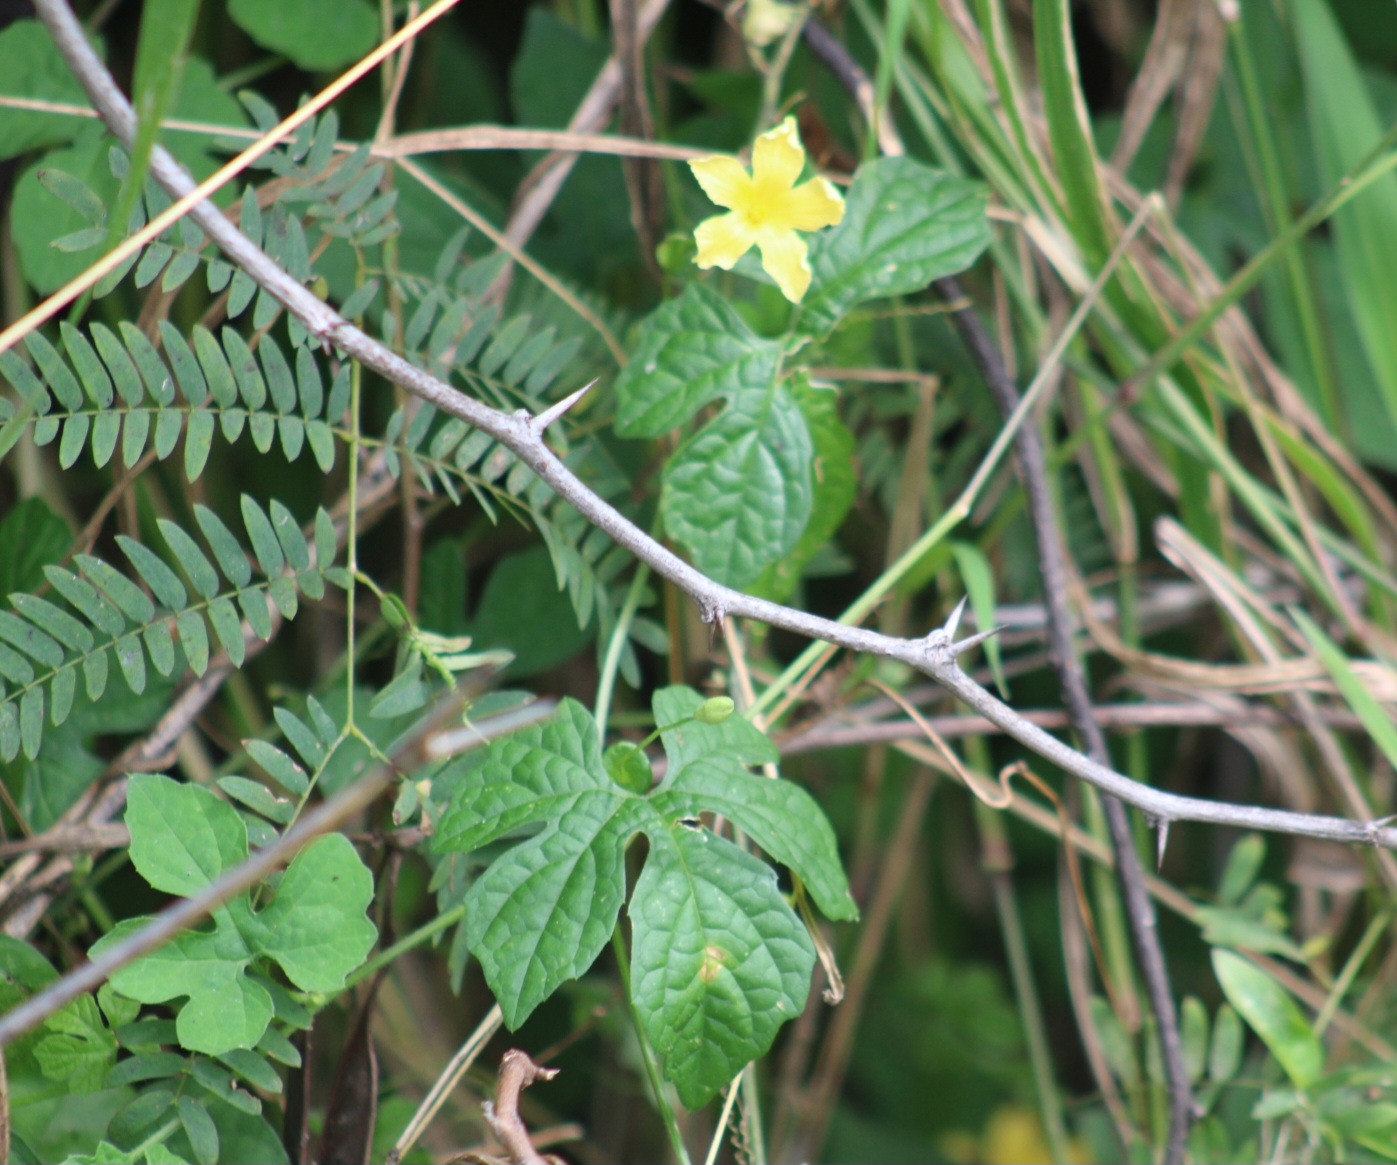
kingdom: Plantae
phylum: Tracheophyta
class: Magnoliopsida
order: Cucurbitales
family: Cucurbitaceae
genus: Momordica
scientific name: Momordica charantia
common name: Balsampear
